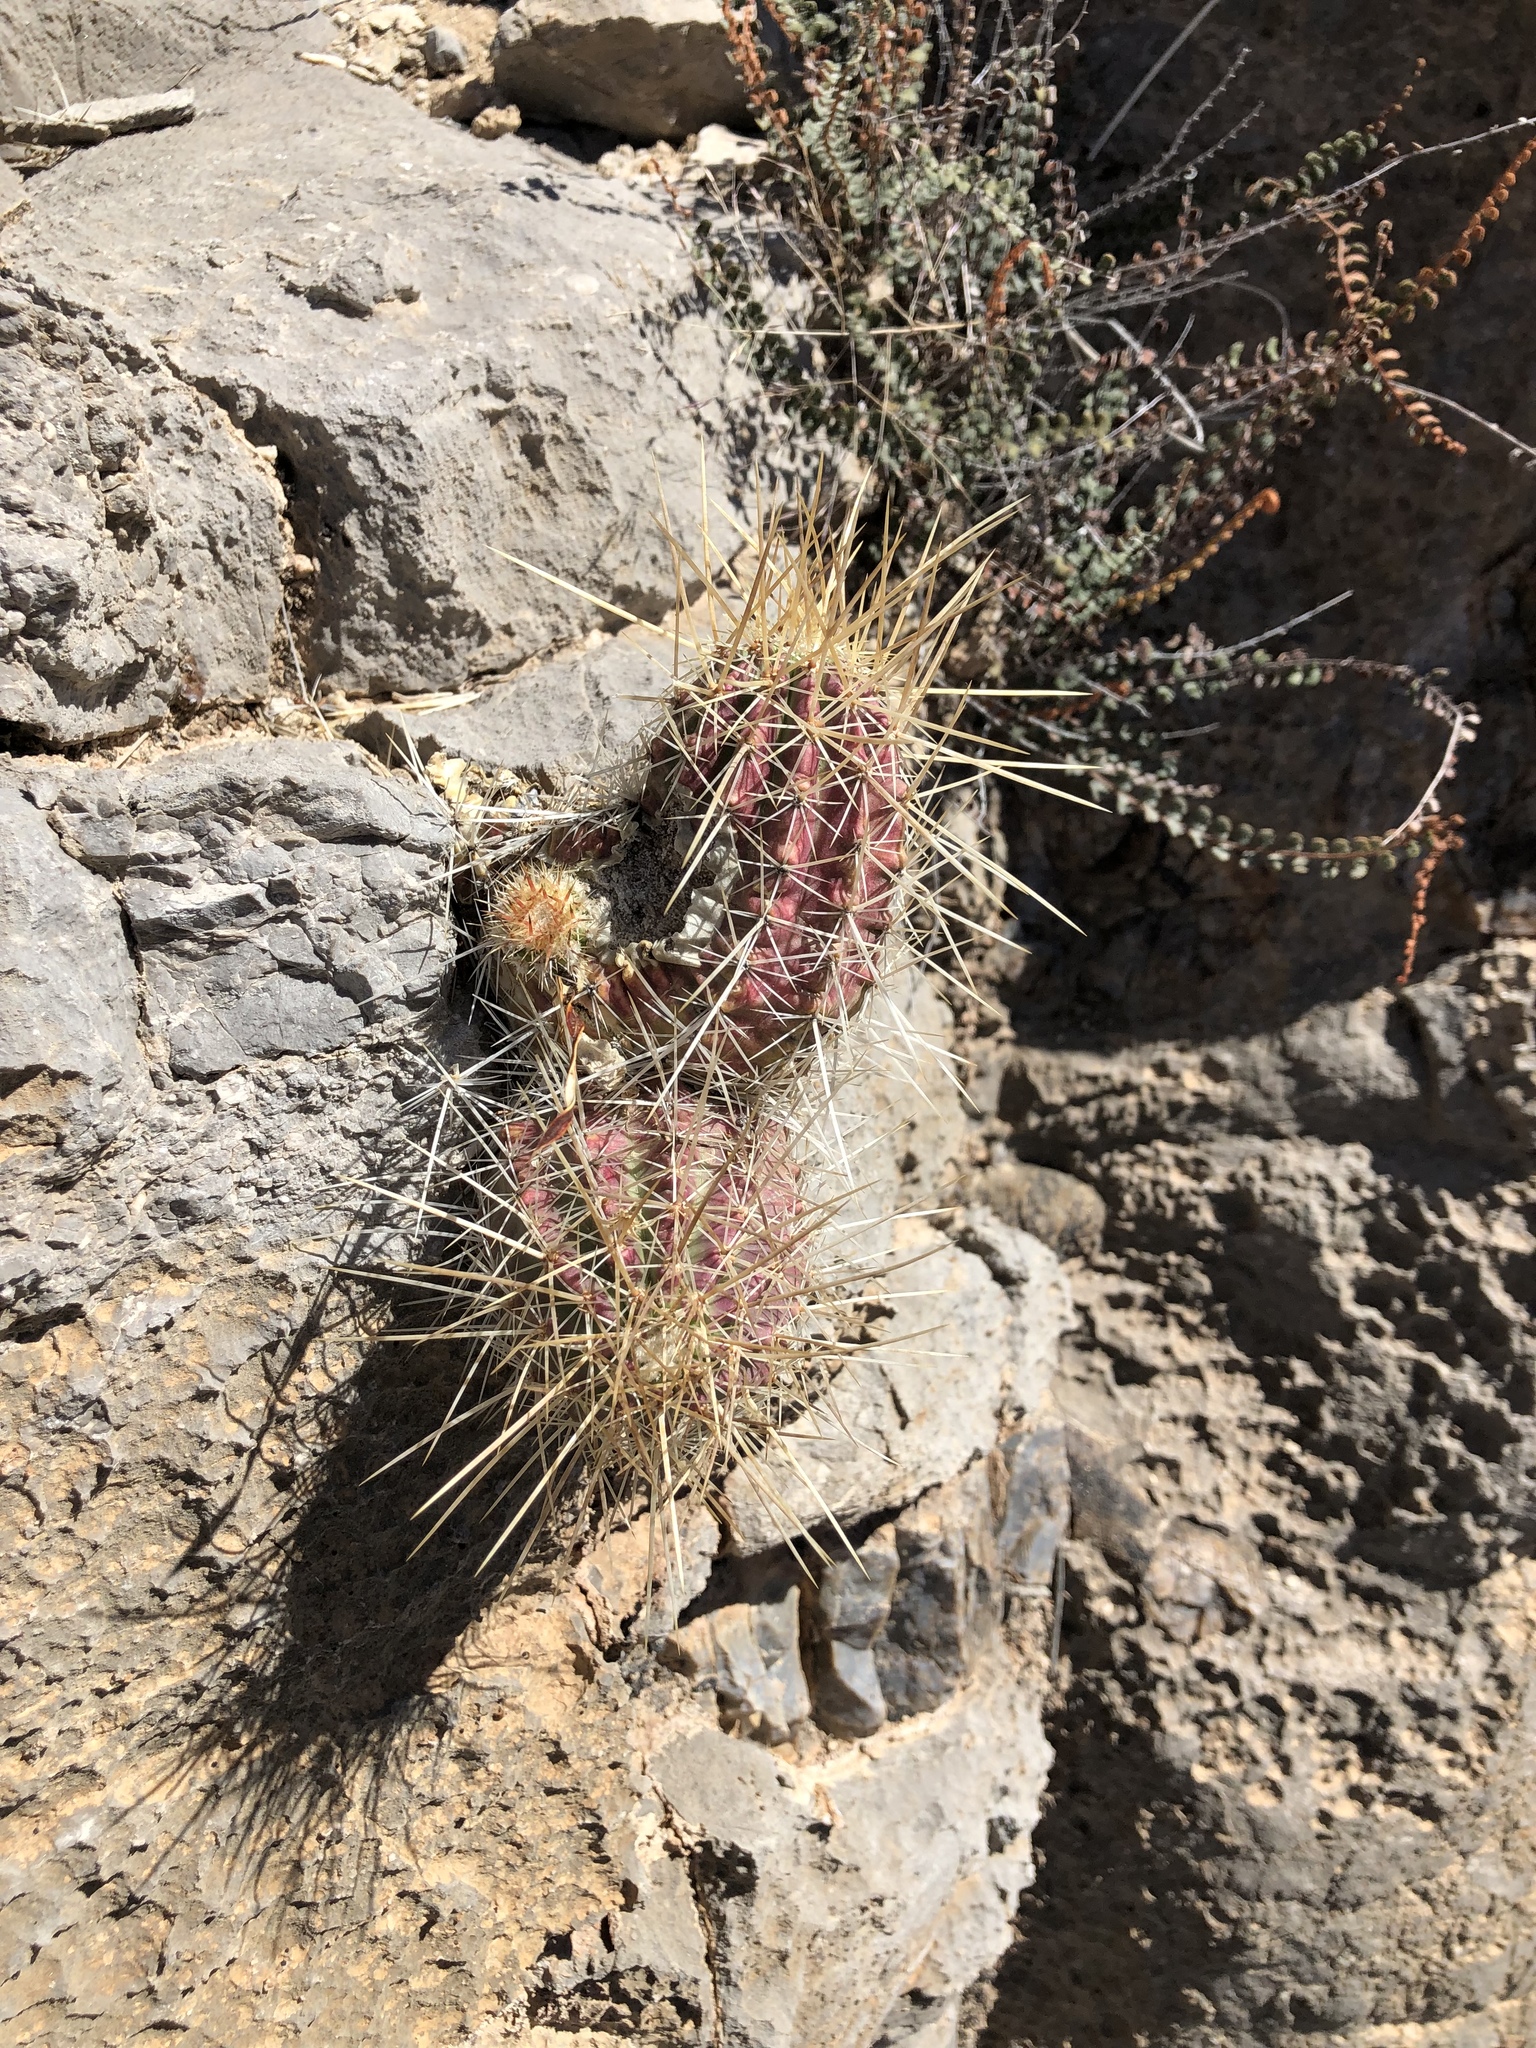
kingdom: Plantae
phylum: Tracheophyta
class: Magnoliopsida
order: Caryophyllales
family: Cactaceae
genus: Echinocereus
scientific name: Echinocereus stramineus
